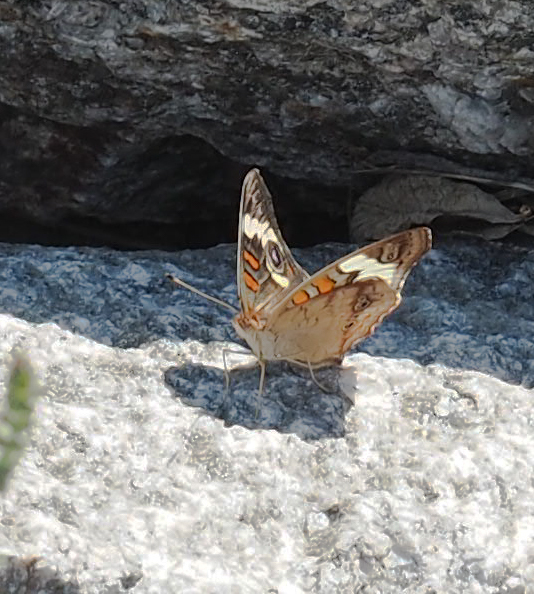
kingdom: Animalia
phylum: Arthropoda
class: Insecta
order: Lepidoptera
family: Nymphalidae
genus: Junonia
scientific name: Junonia coenia
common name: Common buckeye
